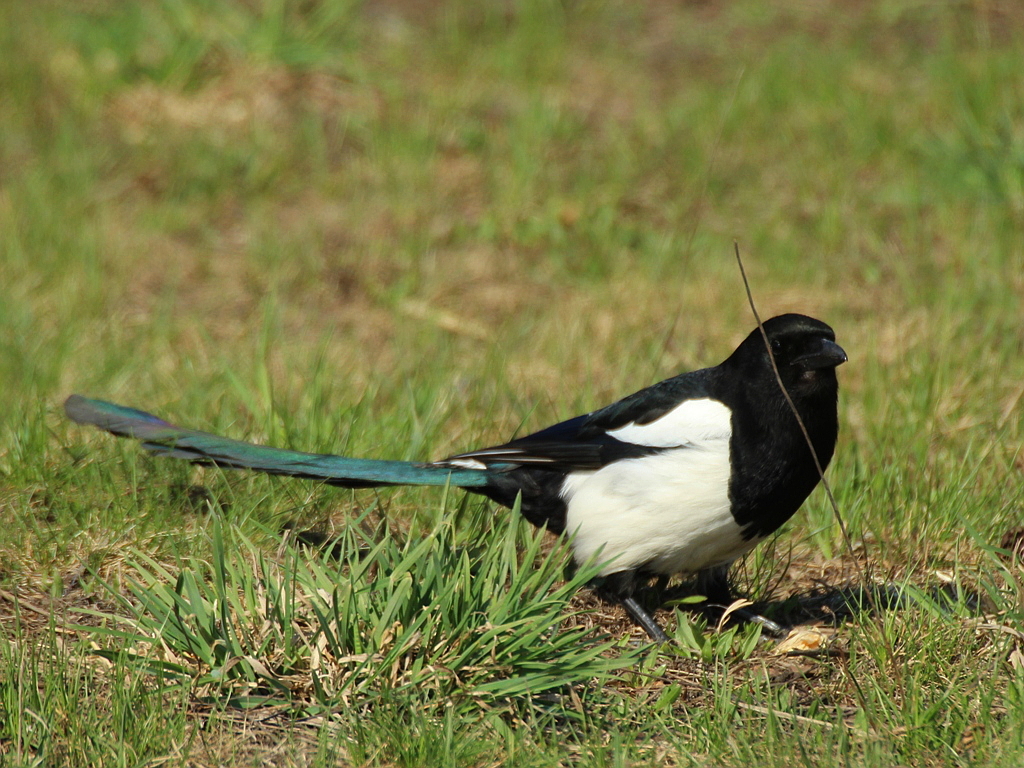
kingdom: Animalia
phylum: Chordata
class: Aves
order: Passeriformes
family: Corvidae
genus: Pica
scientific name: Pica pica
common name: Eurasian magpie
